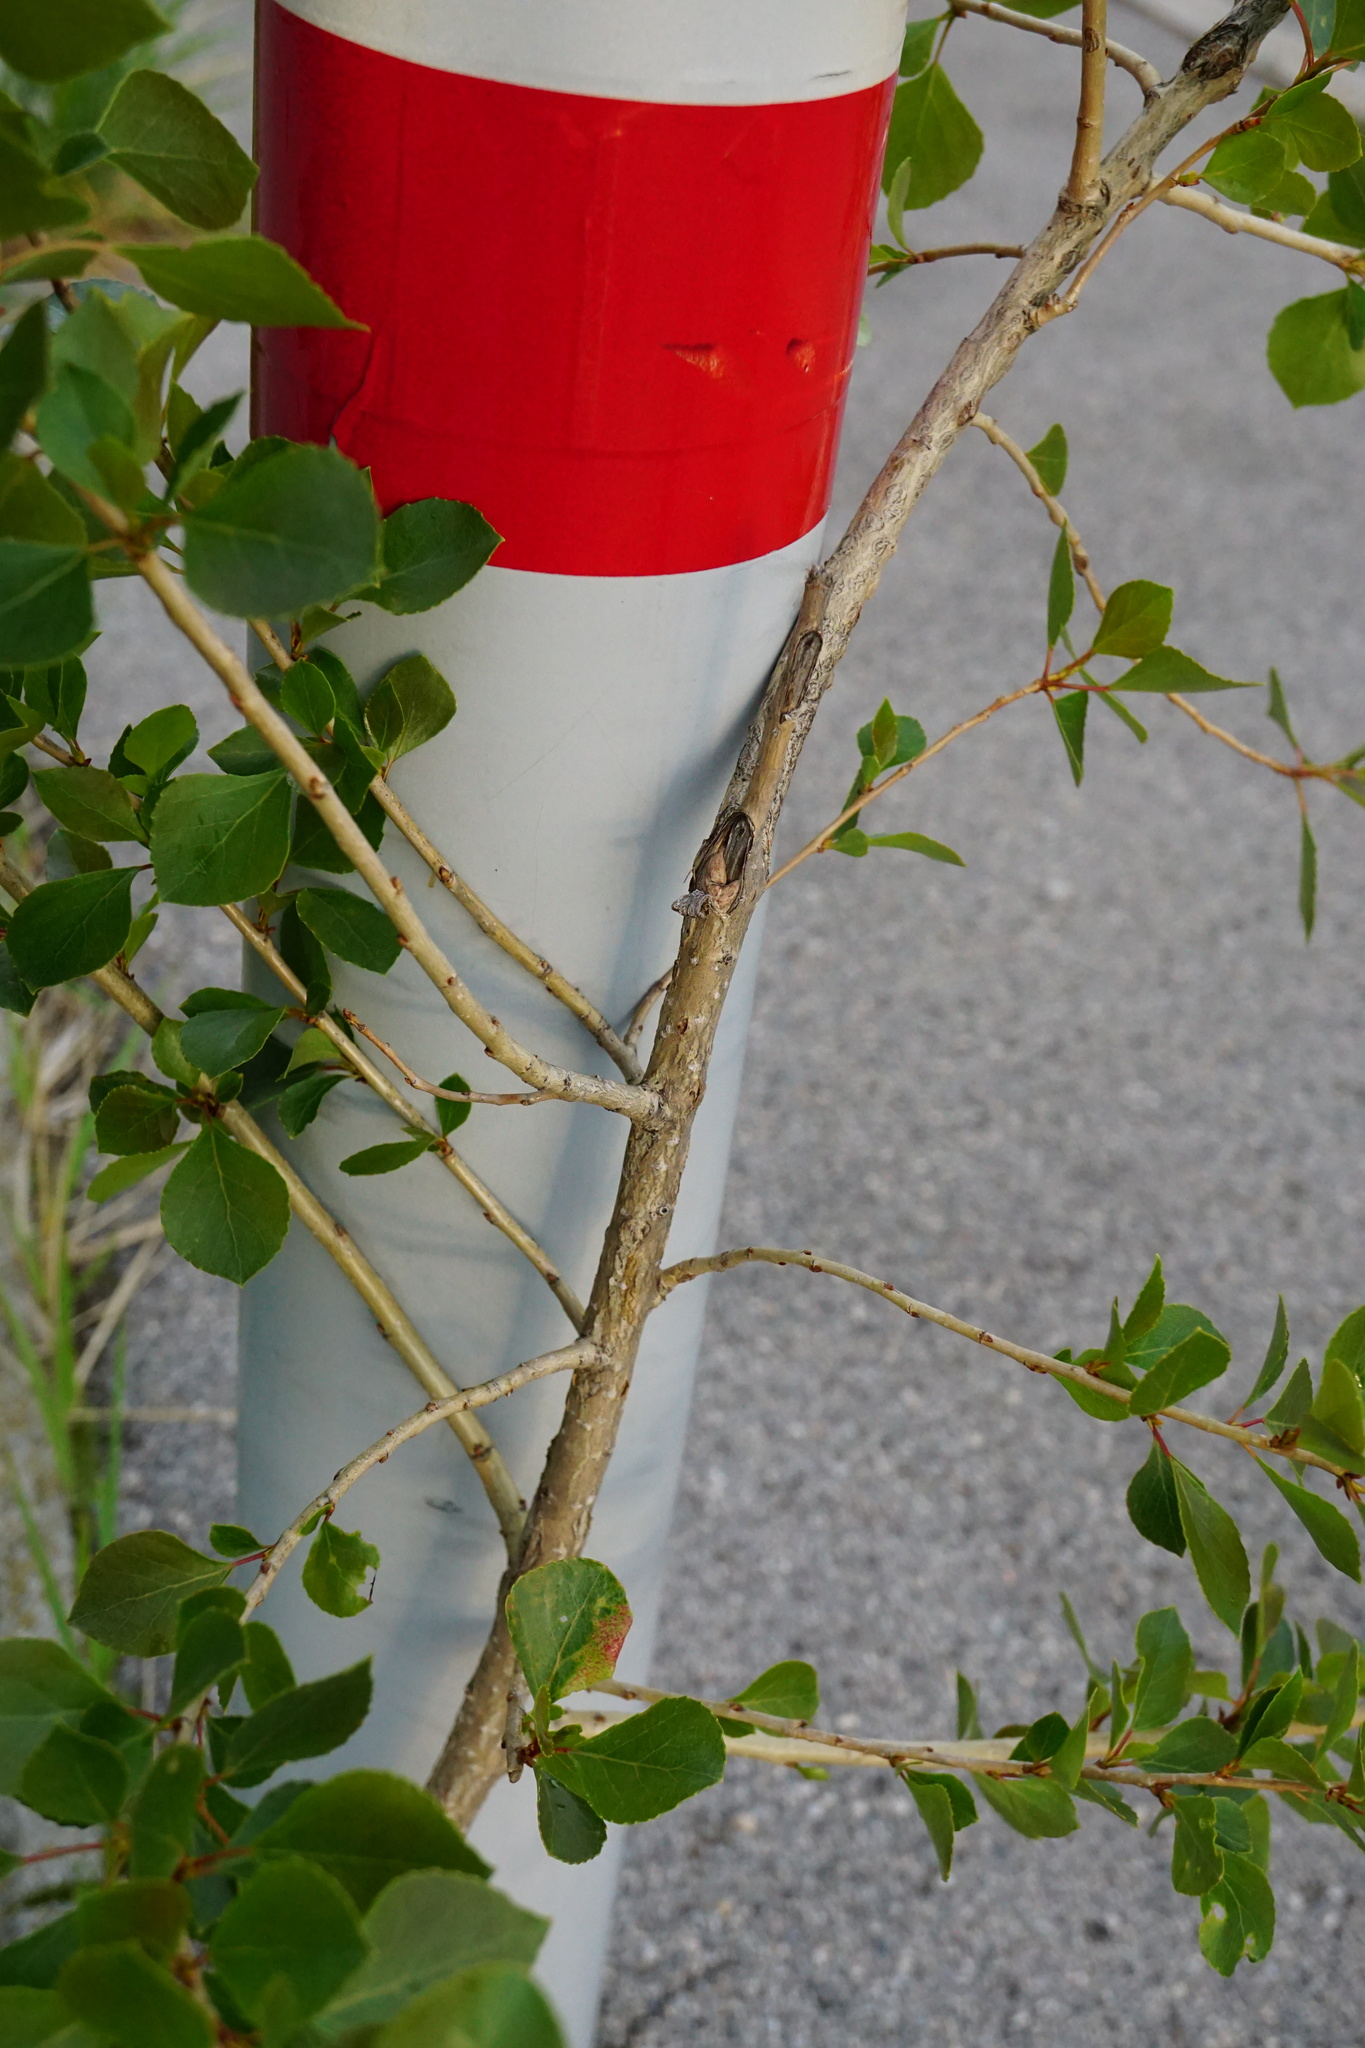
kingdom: Plantae
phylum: Tracheophyta
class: Magnoliopsida
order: Malpighiales
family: Salicaceae
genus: Populus
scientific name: Populus nigra
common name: Black poplar
